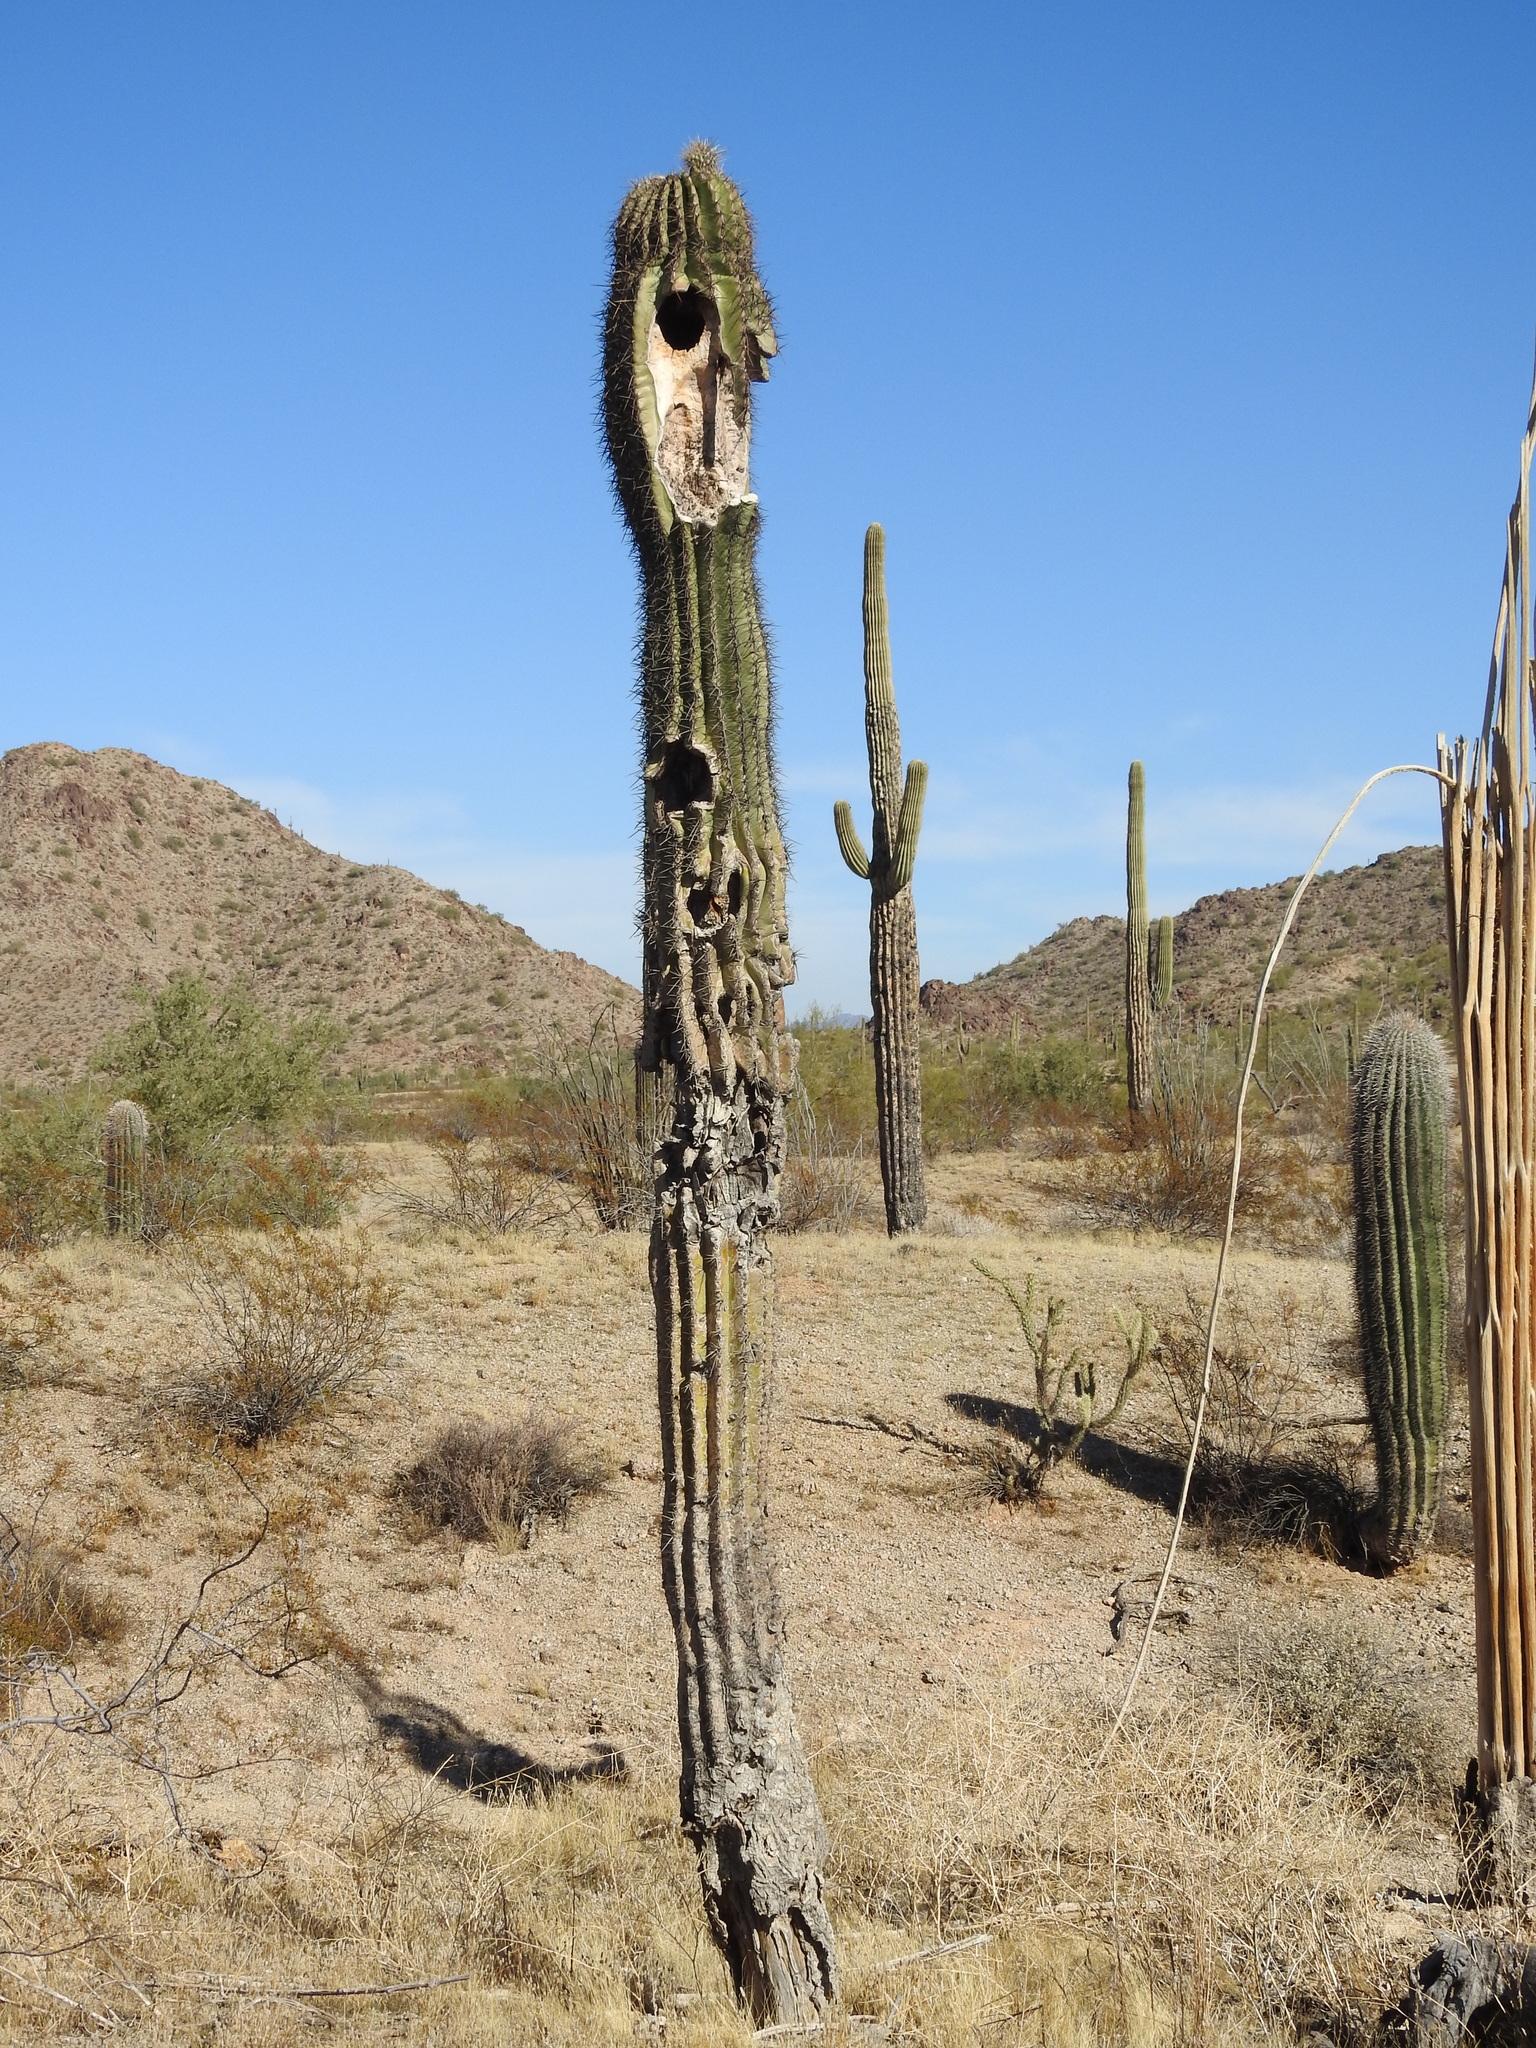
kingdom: Plantae
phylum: Tracheophyta
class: Magnoliopsida
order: Caryophyllales
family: Cactaceae
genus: Carnegiea
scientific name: Carnegiea gigantea
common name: Saguaro
